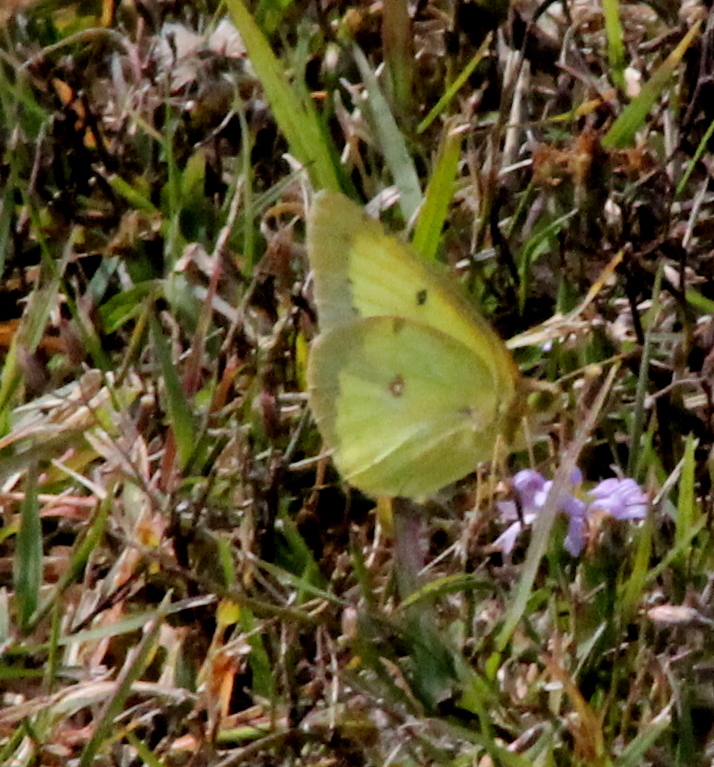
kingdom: Animalia
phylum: Arthropoda
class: Insecta
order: Lepidoptera
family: Pieridae
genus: Colias
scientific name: Colias philodice
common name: Clouded sulphur
